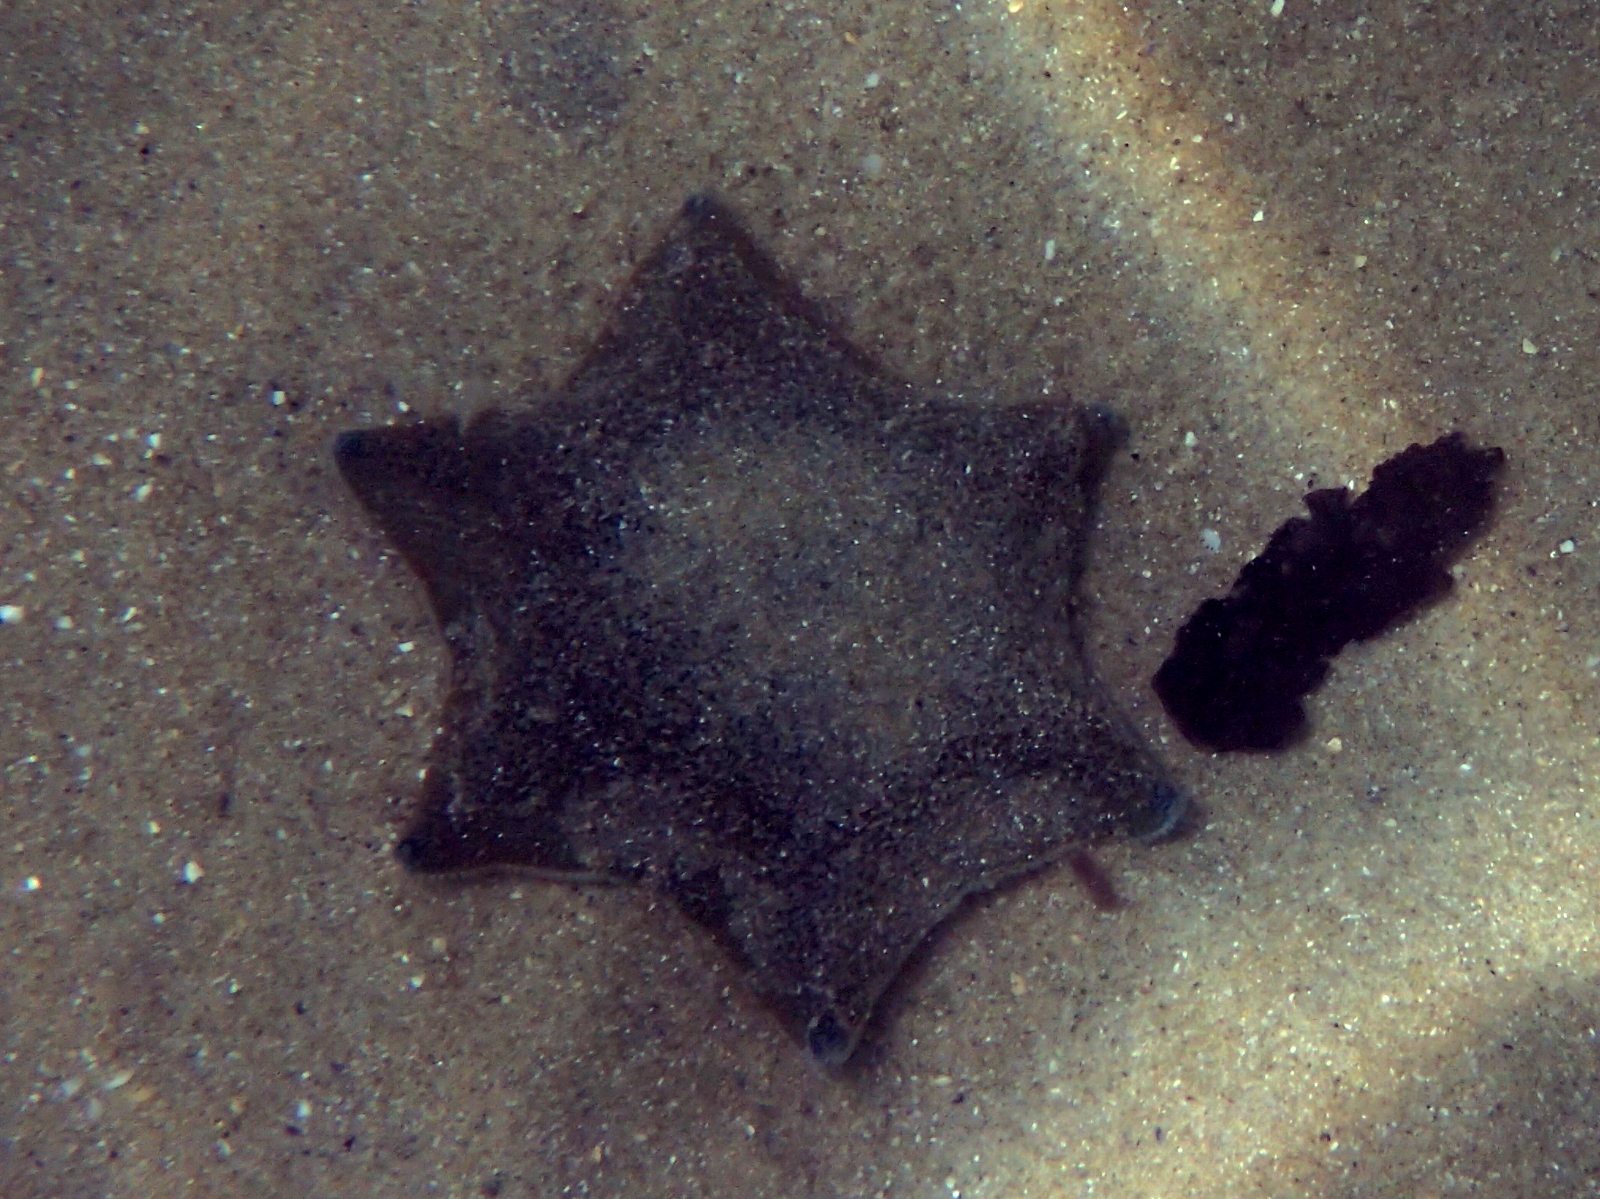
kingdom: Animalia
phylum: Echinodermata
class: Asteroidea
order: Valvatida
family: Asterinidae
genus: Patiriella
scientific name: Patiriella regularis
